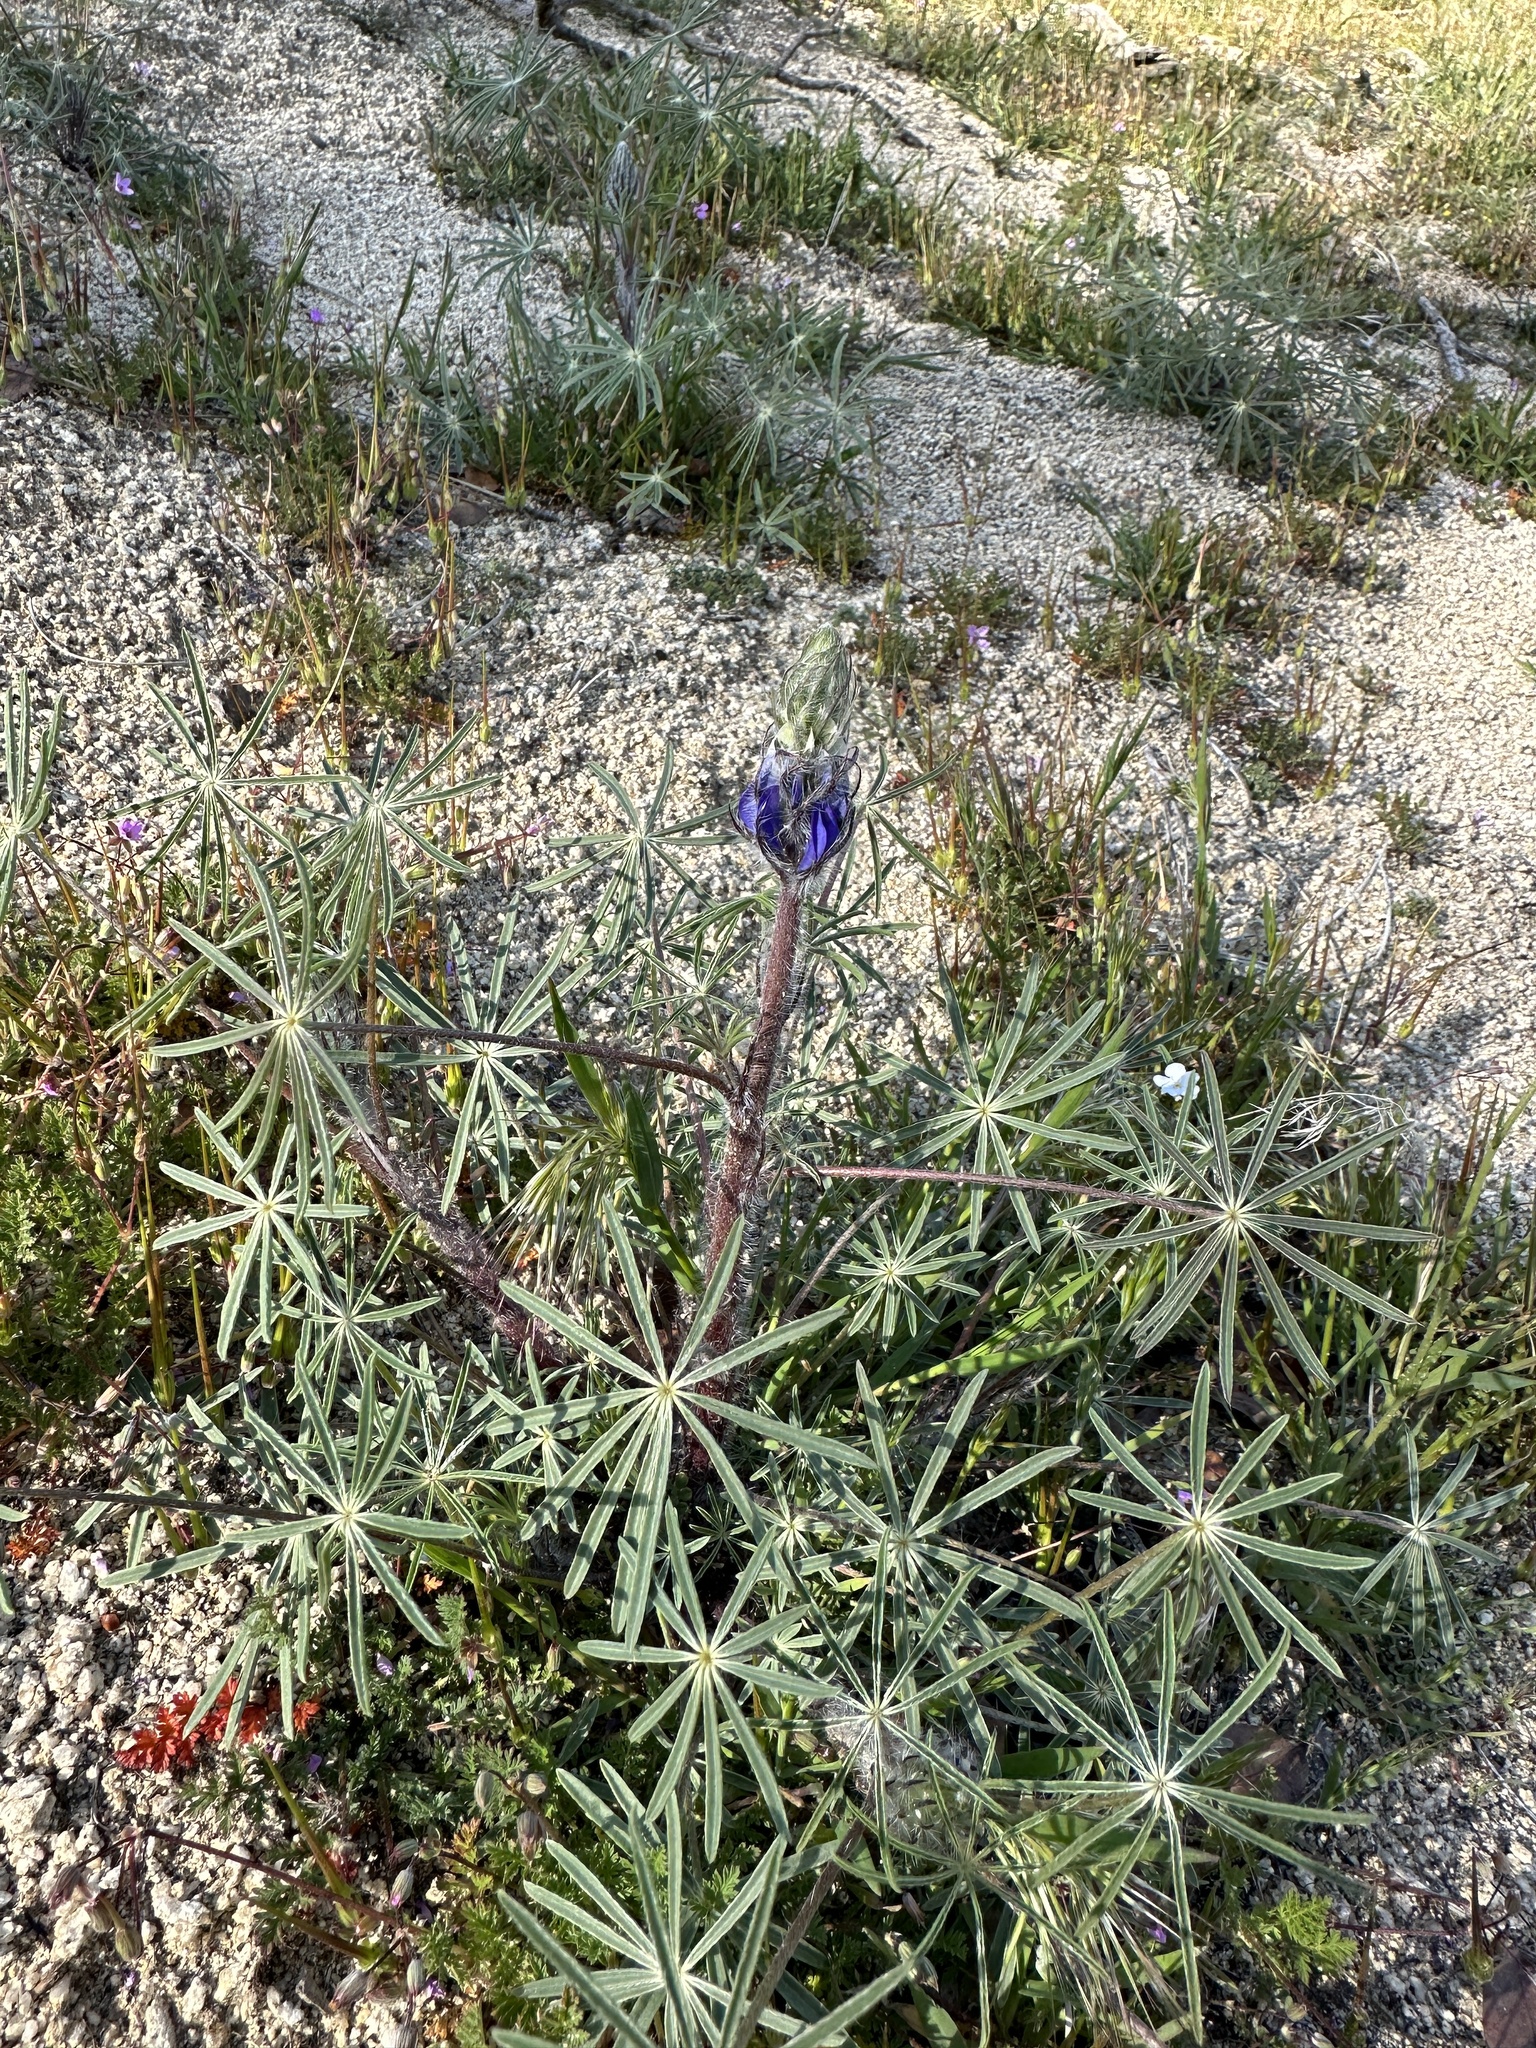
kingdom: Plantae
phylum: Tracheophyta
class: Magnoliopsida
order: Fabales
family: Fabaceae
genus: Lupinus
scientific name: Lupinus benthamii
